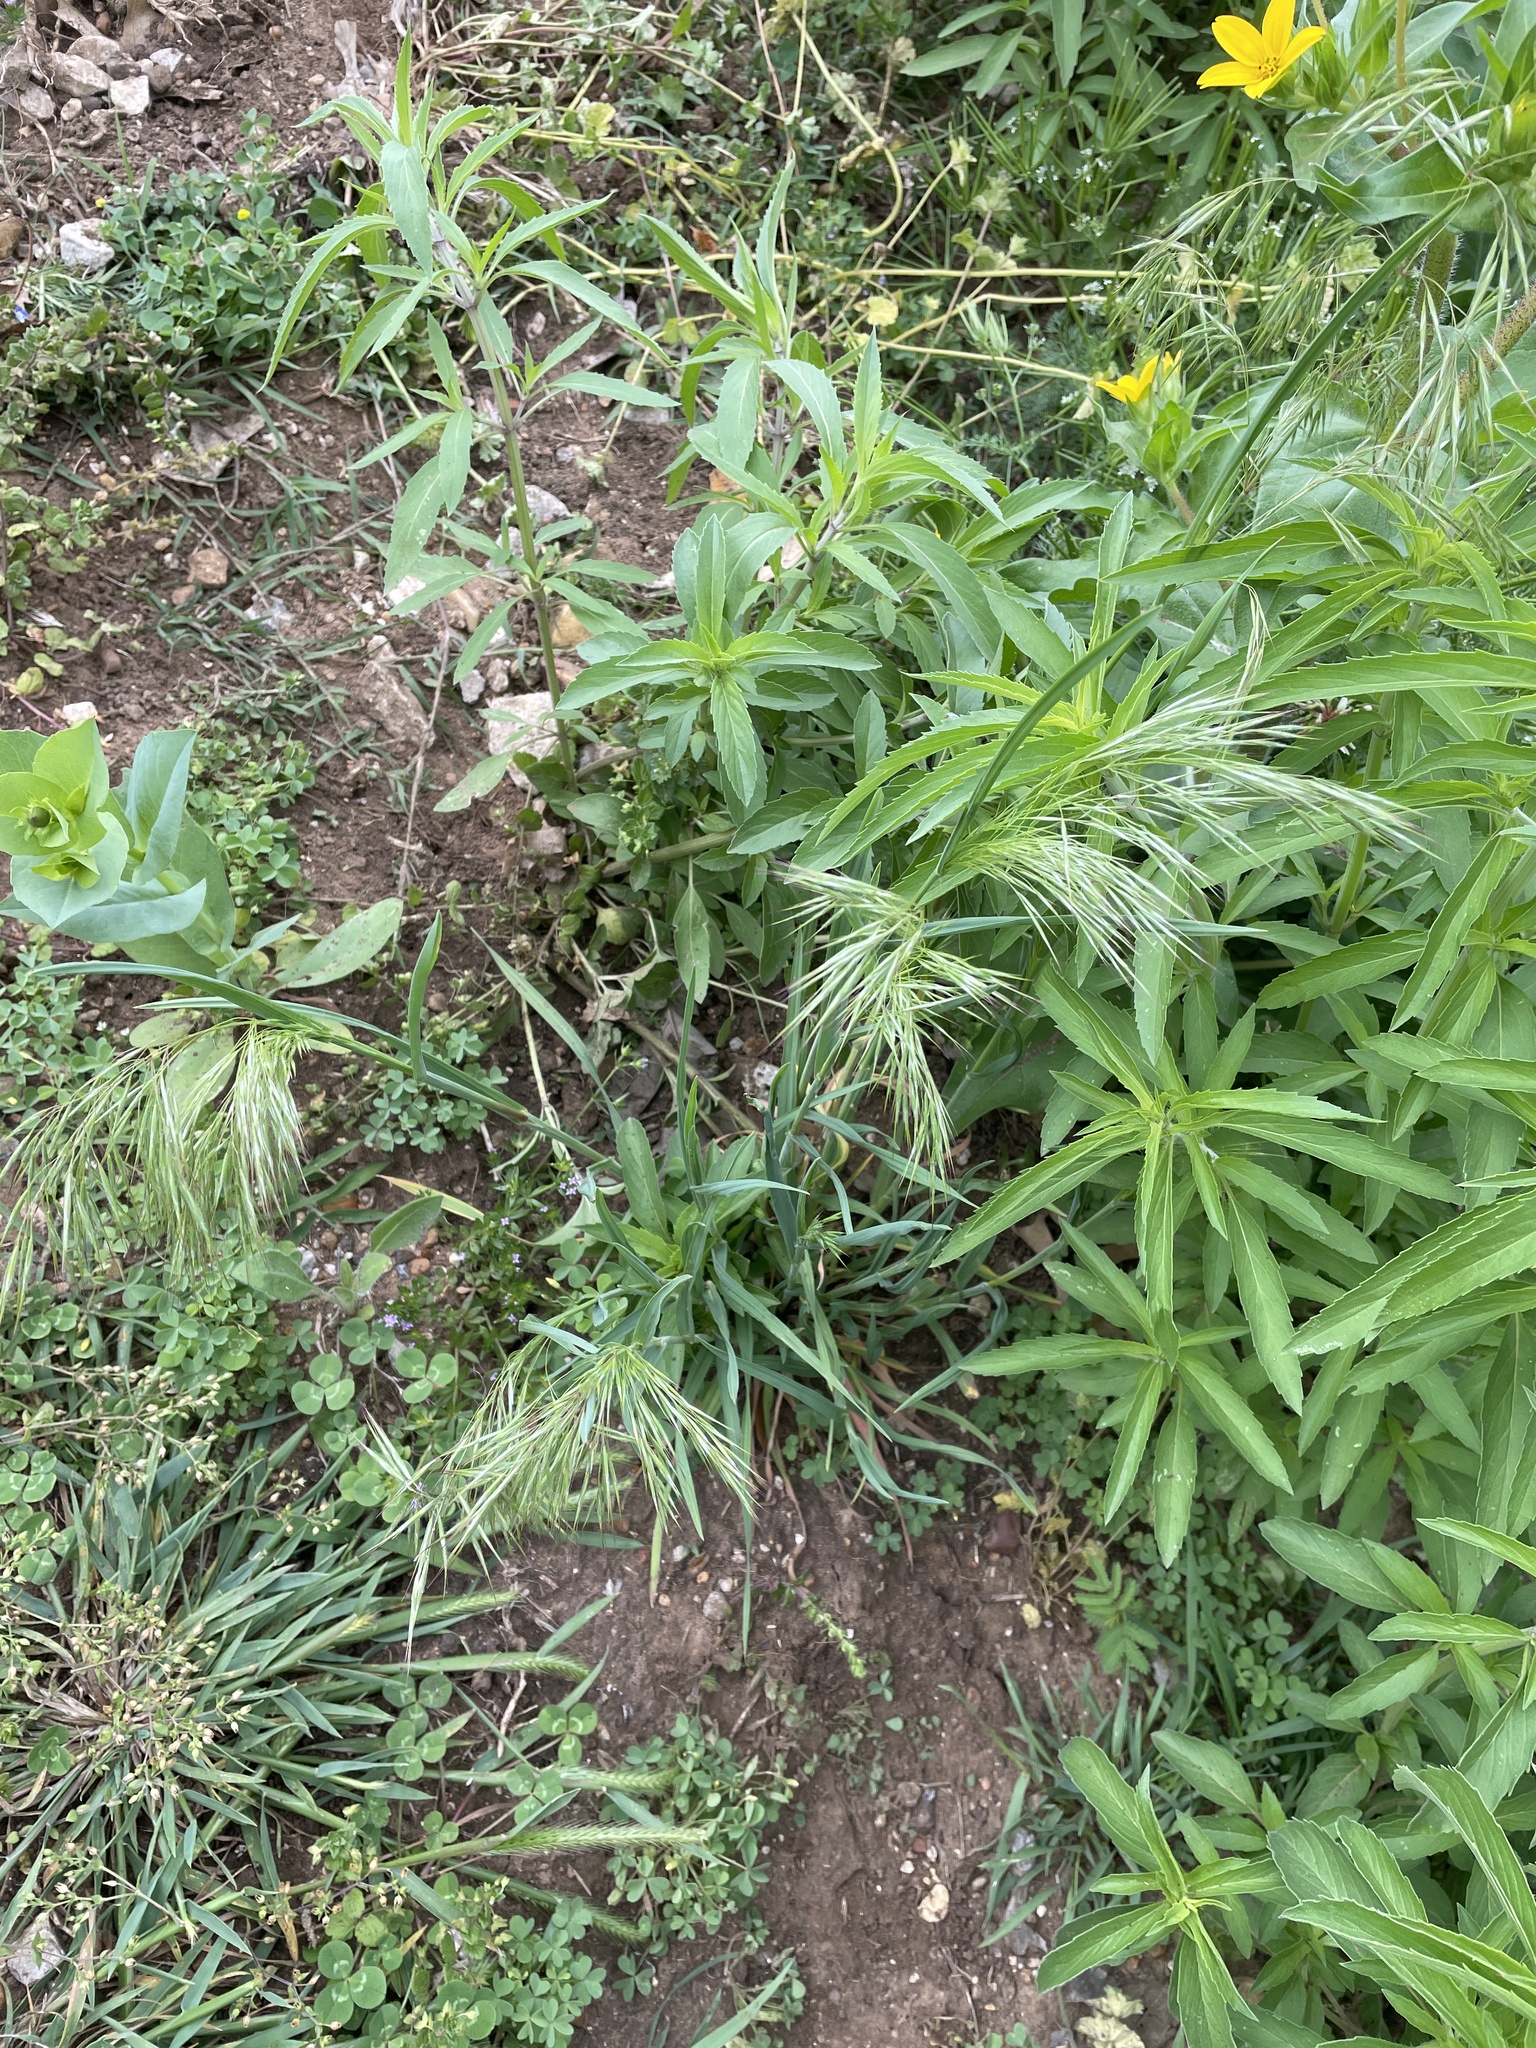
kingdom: Plantae
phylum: Tracheophyta
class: Liliopsida
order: Poales
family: Poaceae
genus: Bromus
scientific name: Bromus tectorum
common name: Cheatgrass
